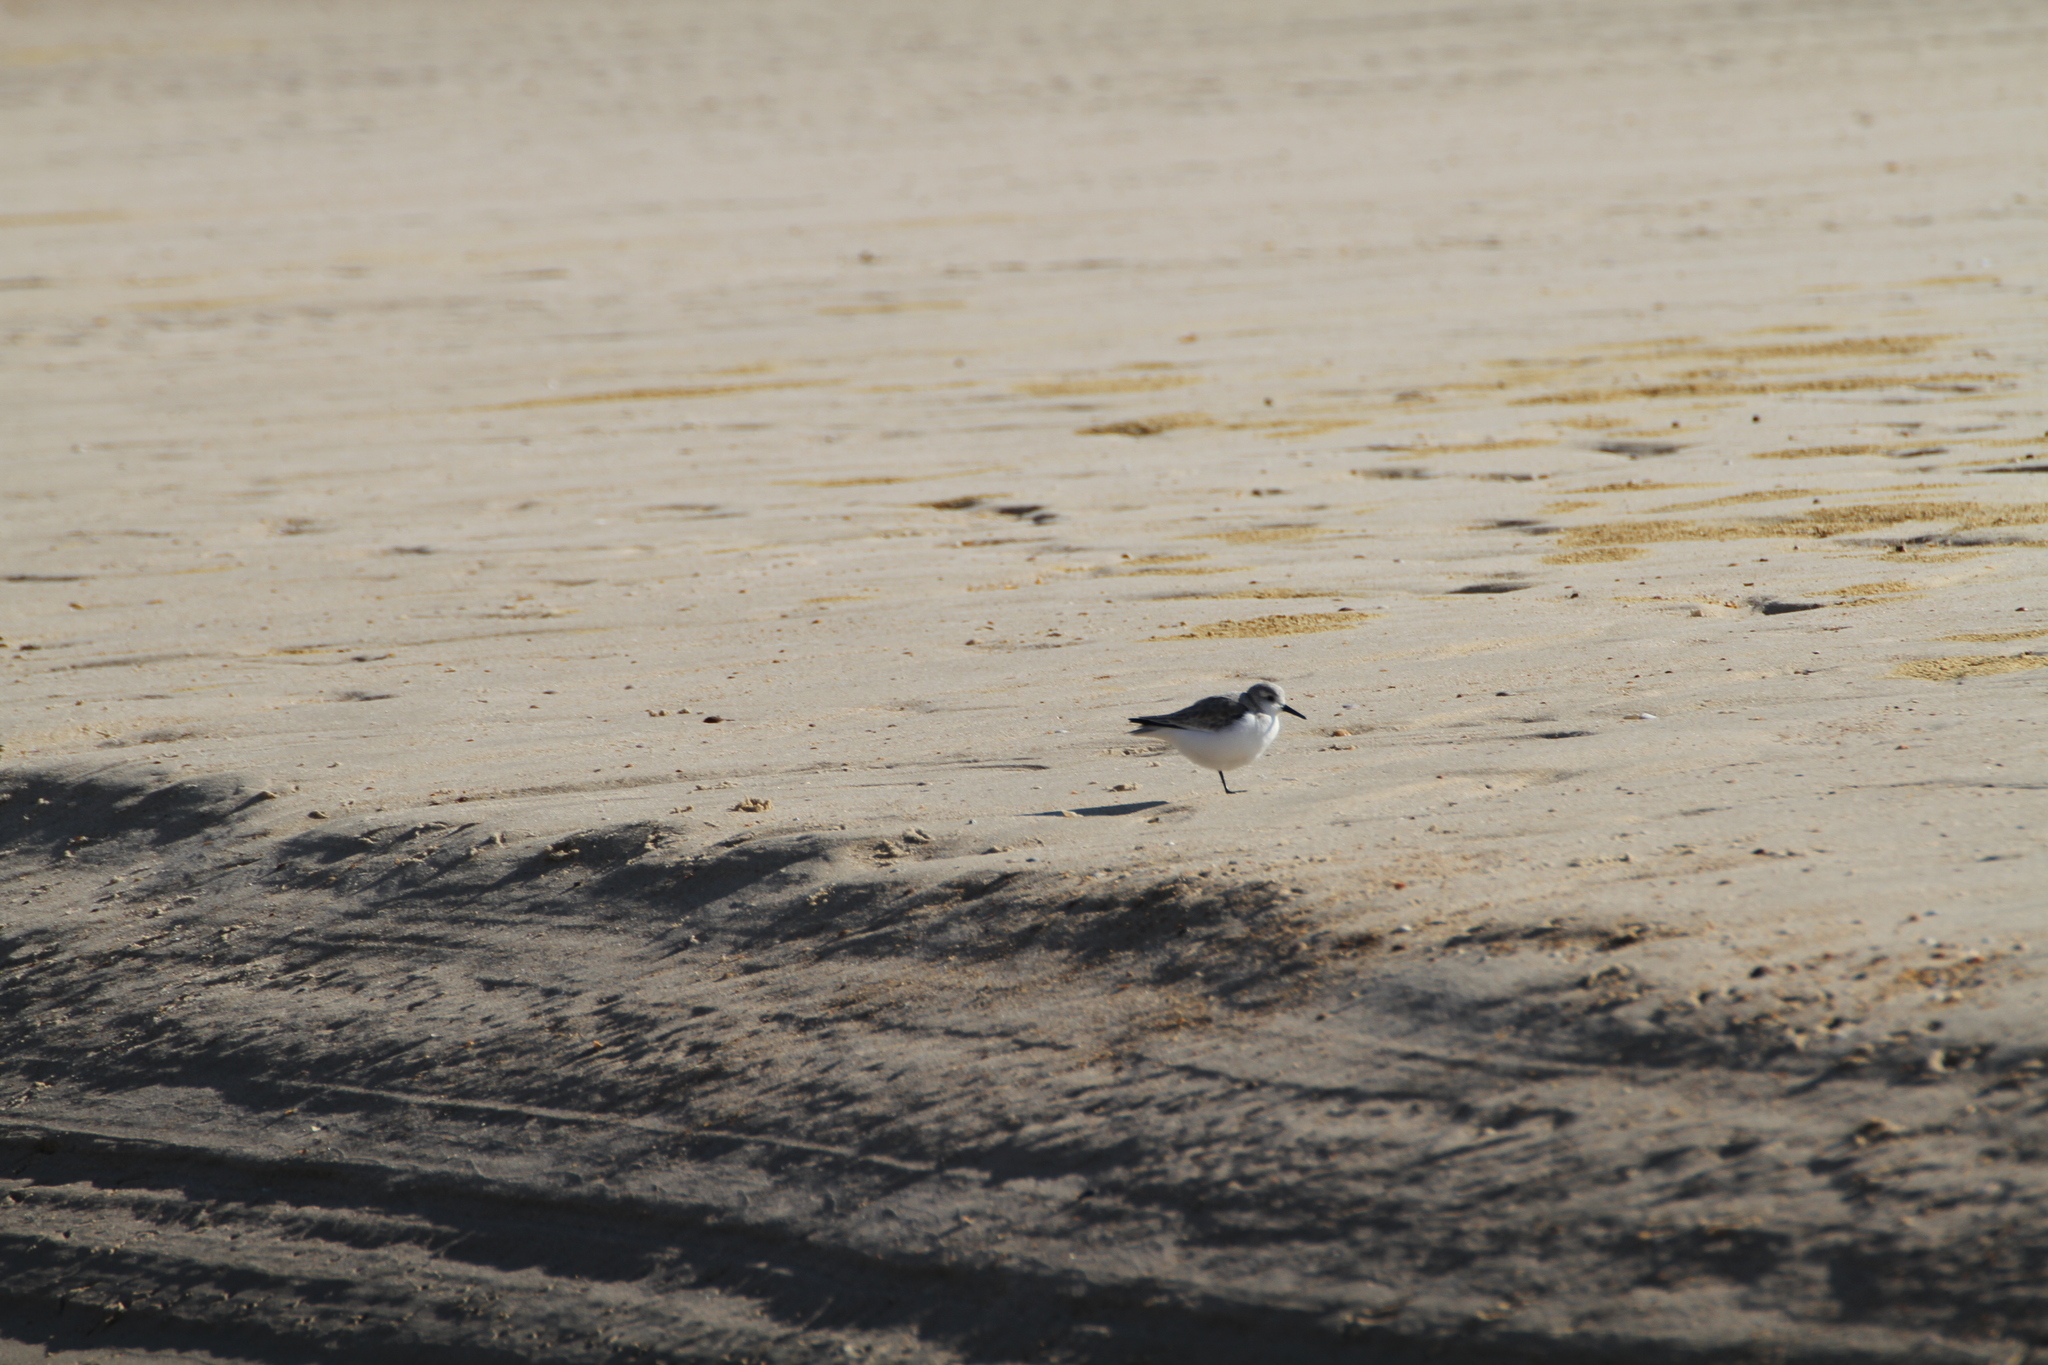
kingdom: Animalia
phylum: Chordata
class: Aves
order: Charadriiformes
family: Scolopacidae
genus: Calidris
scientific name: Calidris alba
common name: Sanderling
